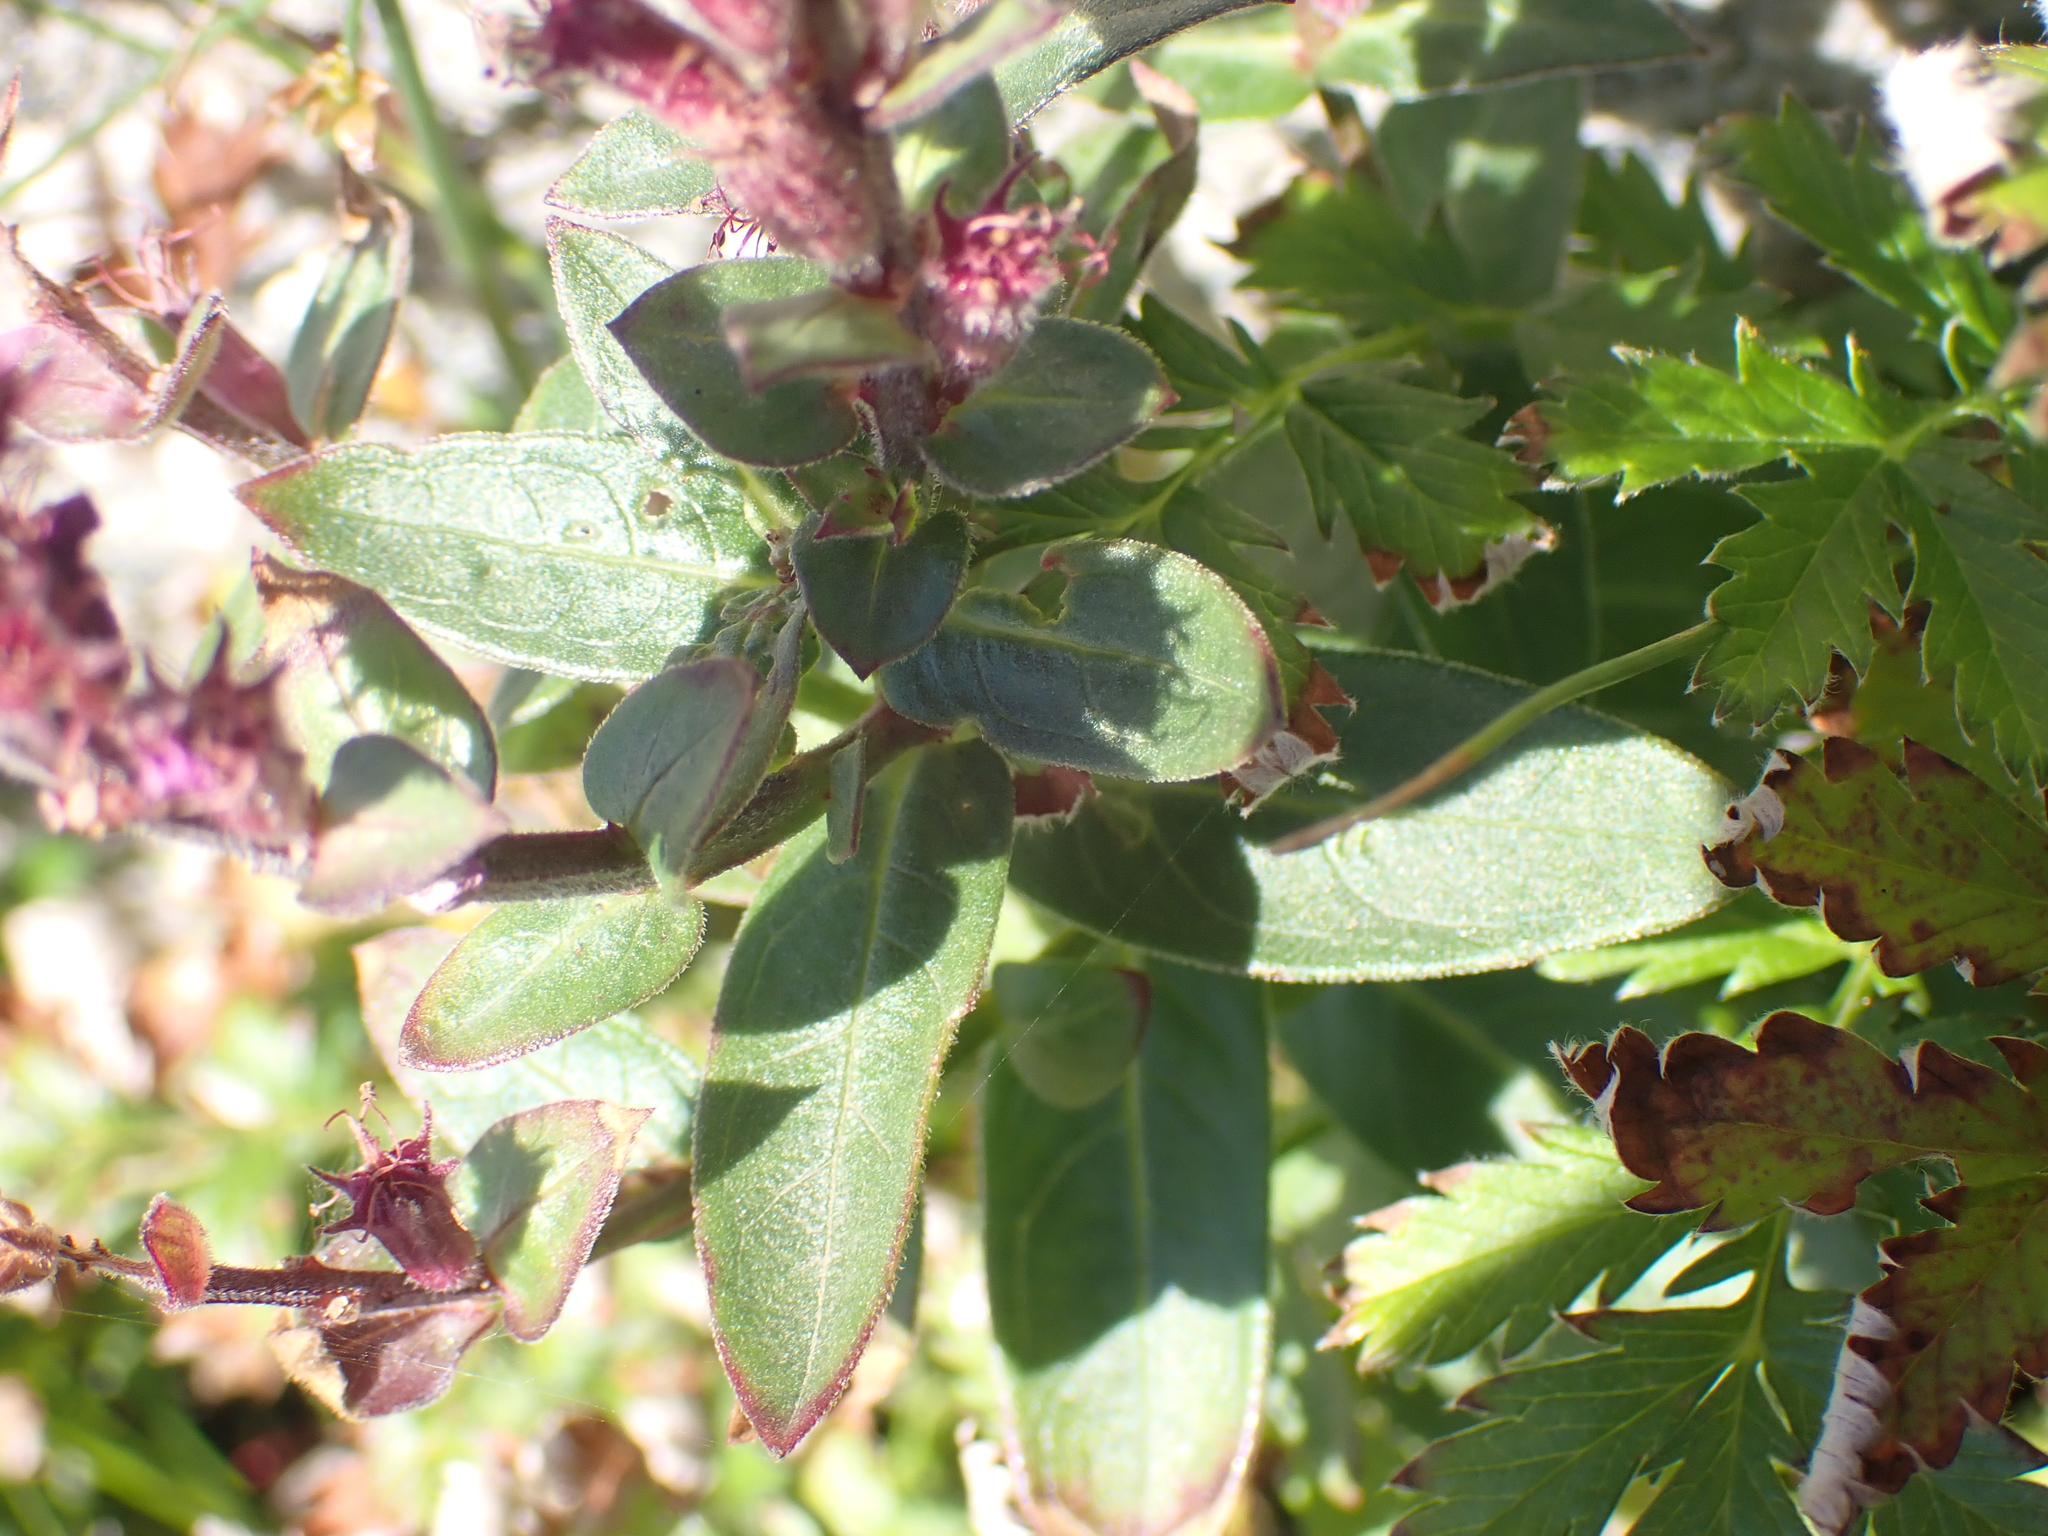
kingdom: Plantae
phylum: Tracheophyta
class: Magnoliopsida
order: Myrtales
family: Lythraceae
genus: Lythrum
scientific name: Lythrum salicaria
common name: Purple loosestrife
